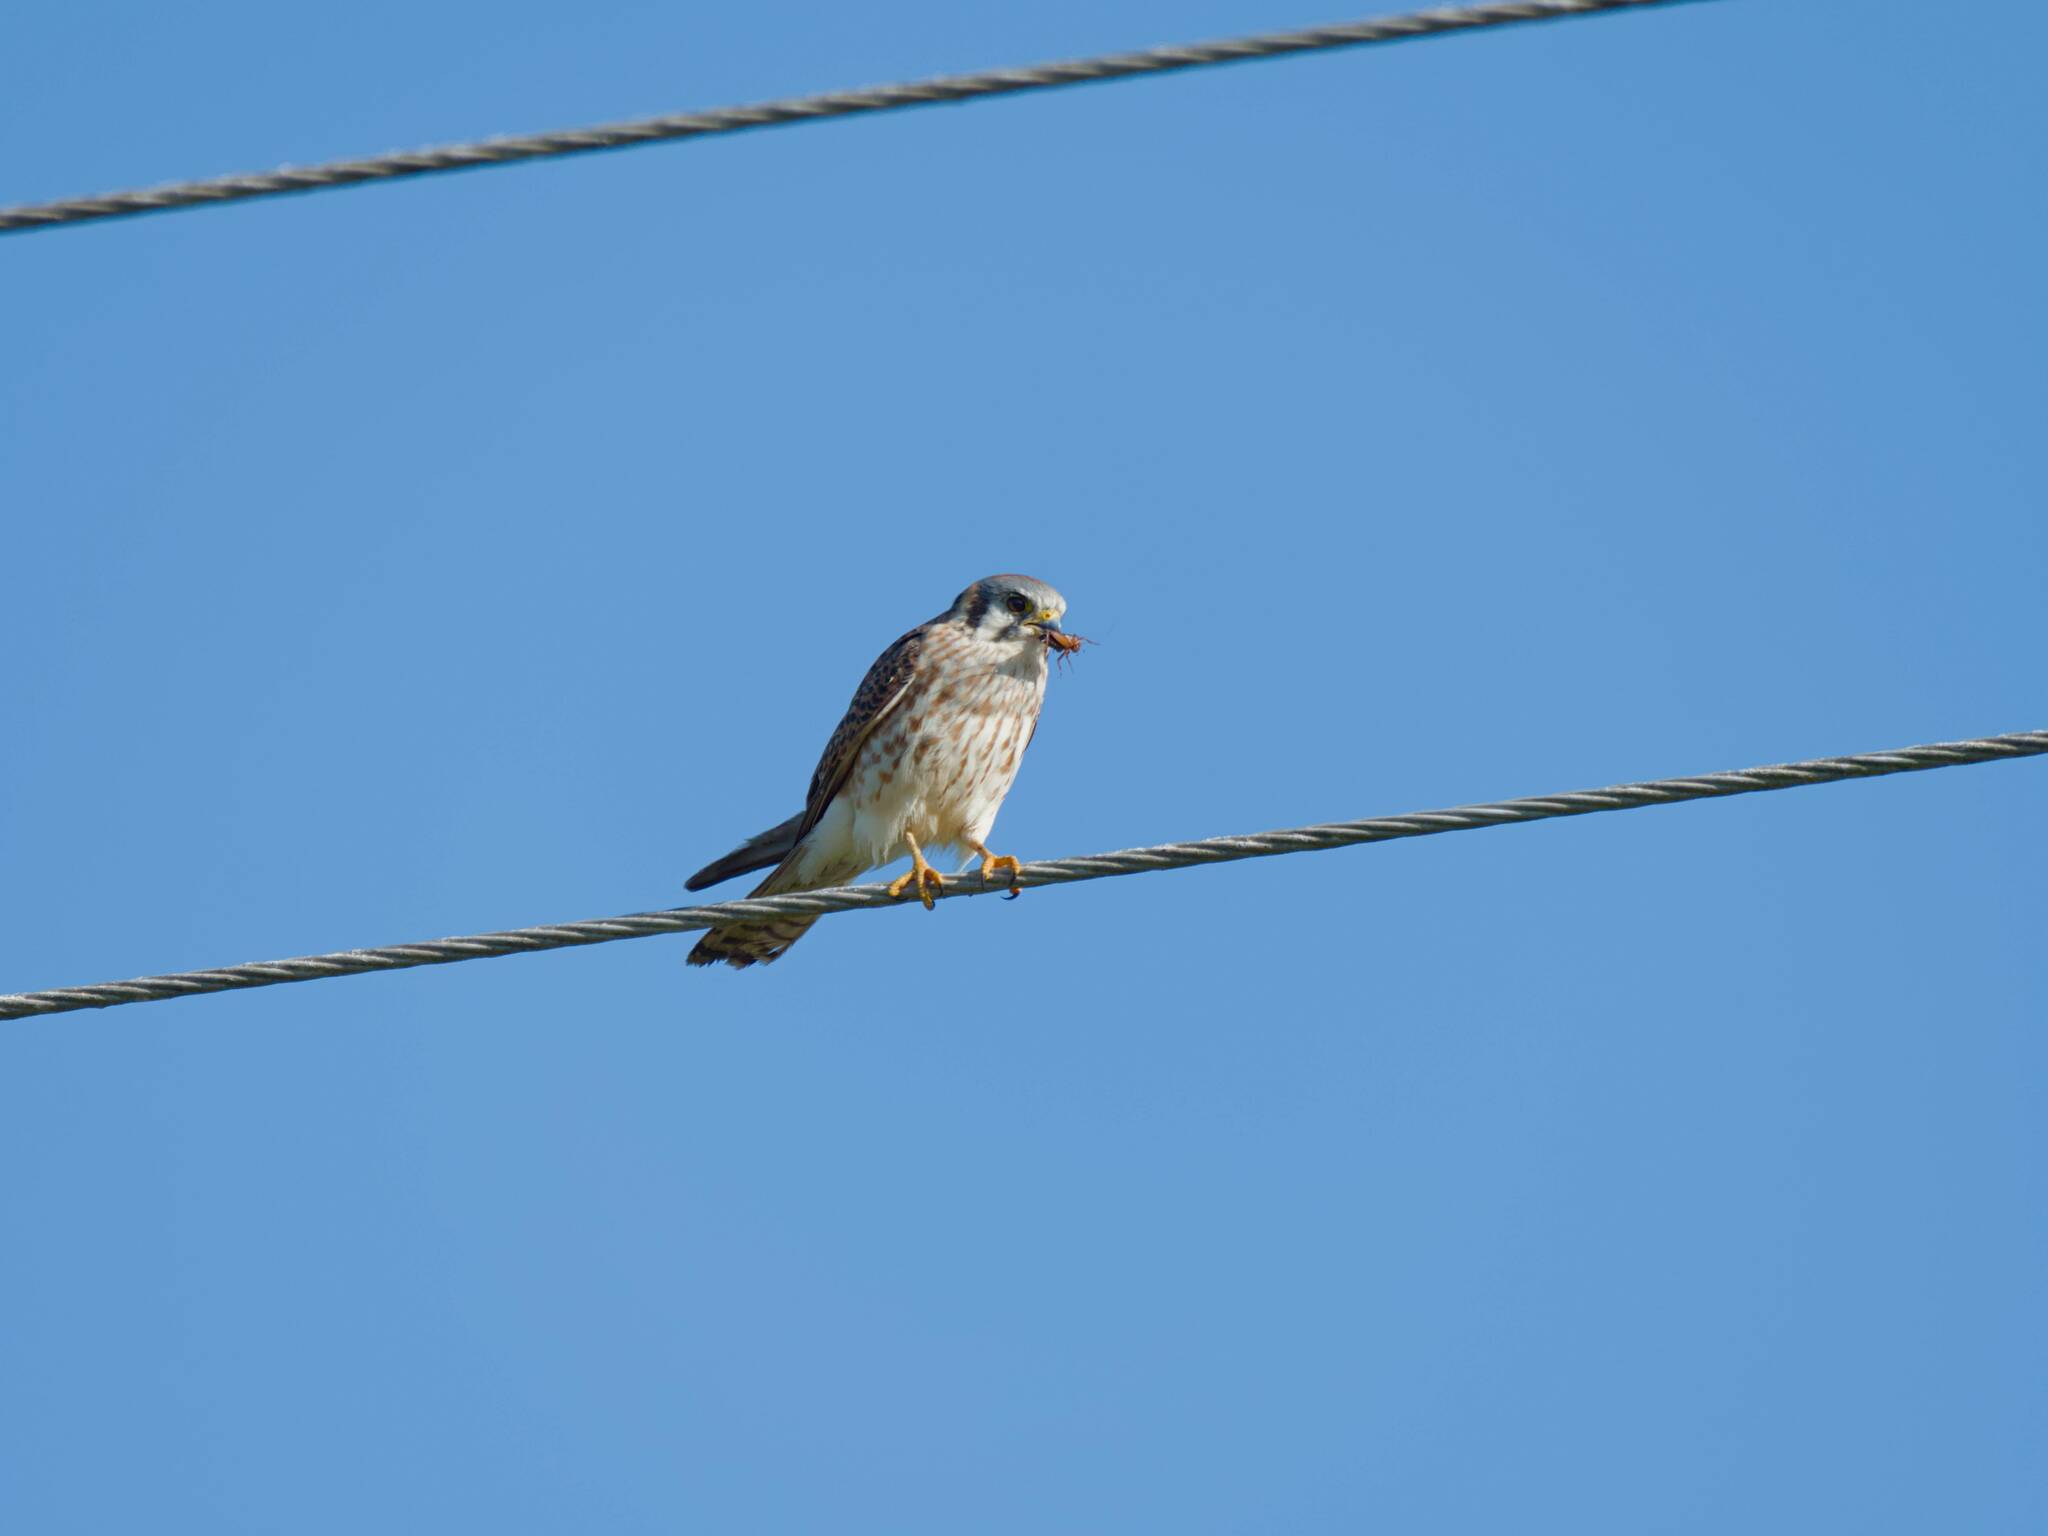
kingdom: Animalia
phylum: Chordata
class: Aves
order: Falconiformes
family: Falconidae
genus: Falco
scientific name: Falco sparverius
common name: American kestrel
